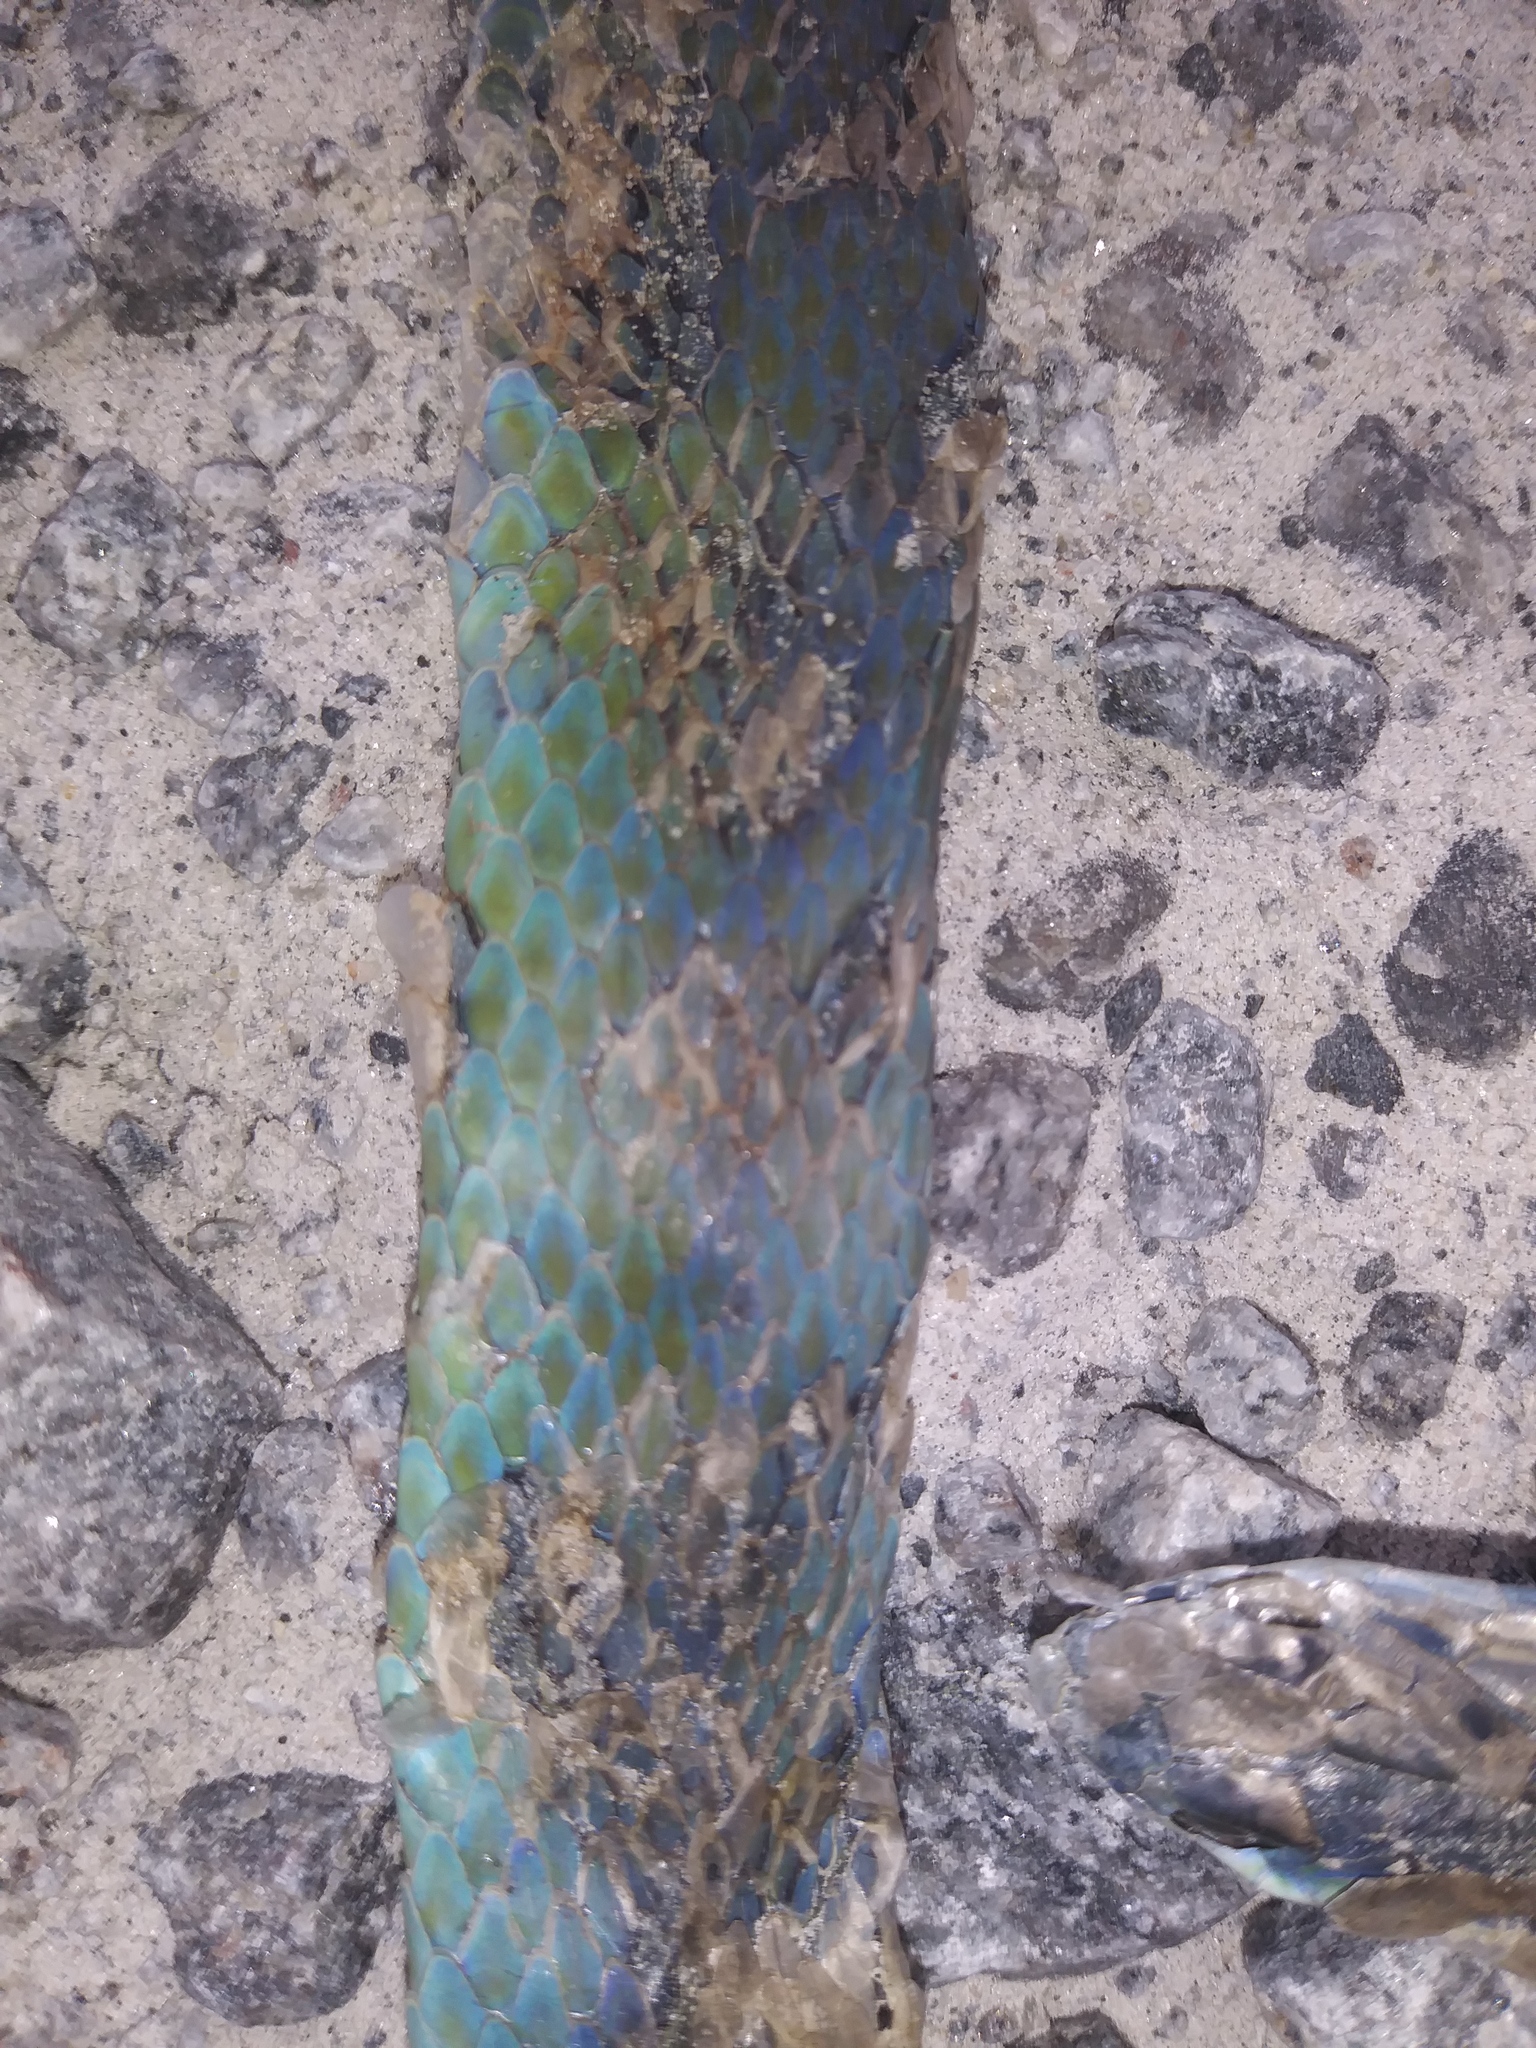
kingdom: Animalia
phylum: Chordata
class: Squamata
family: Colubridae
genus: Opheodrys
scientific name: Opheodrys aestivus
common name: Rough greensnake
